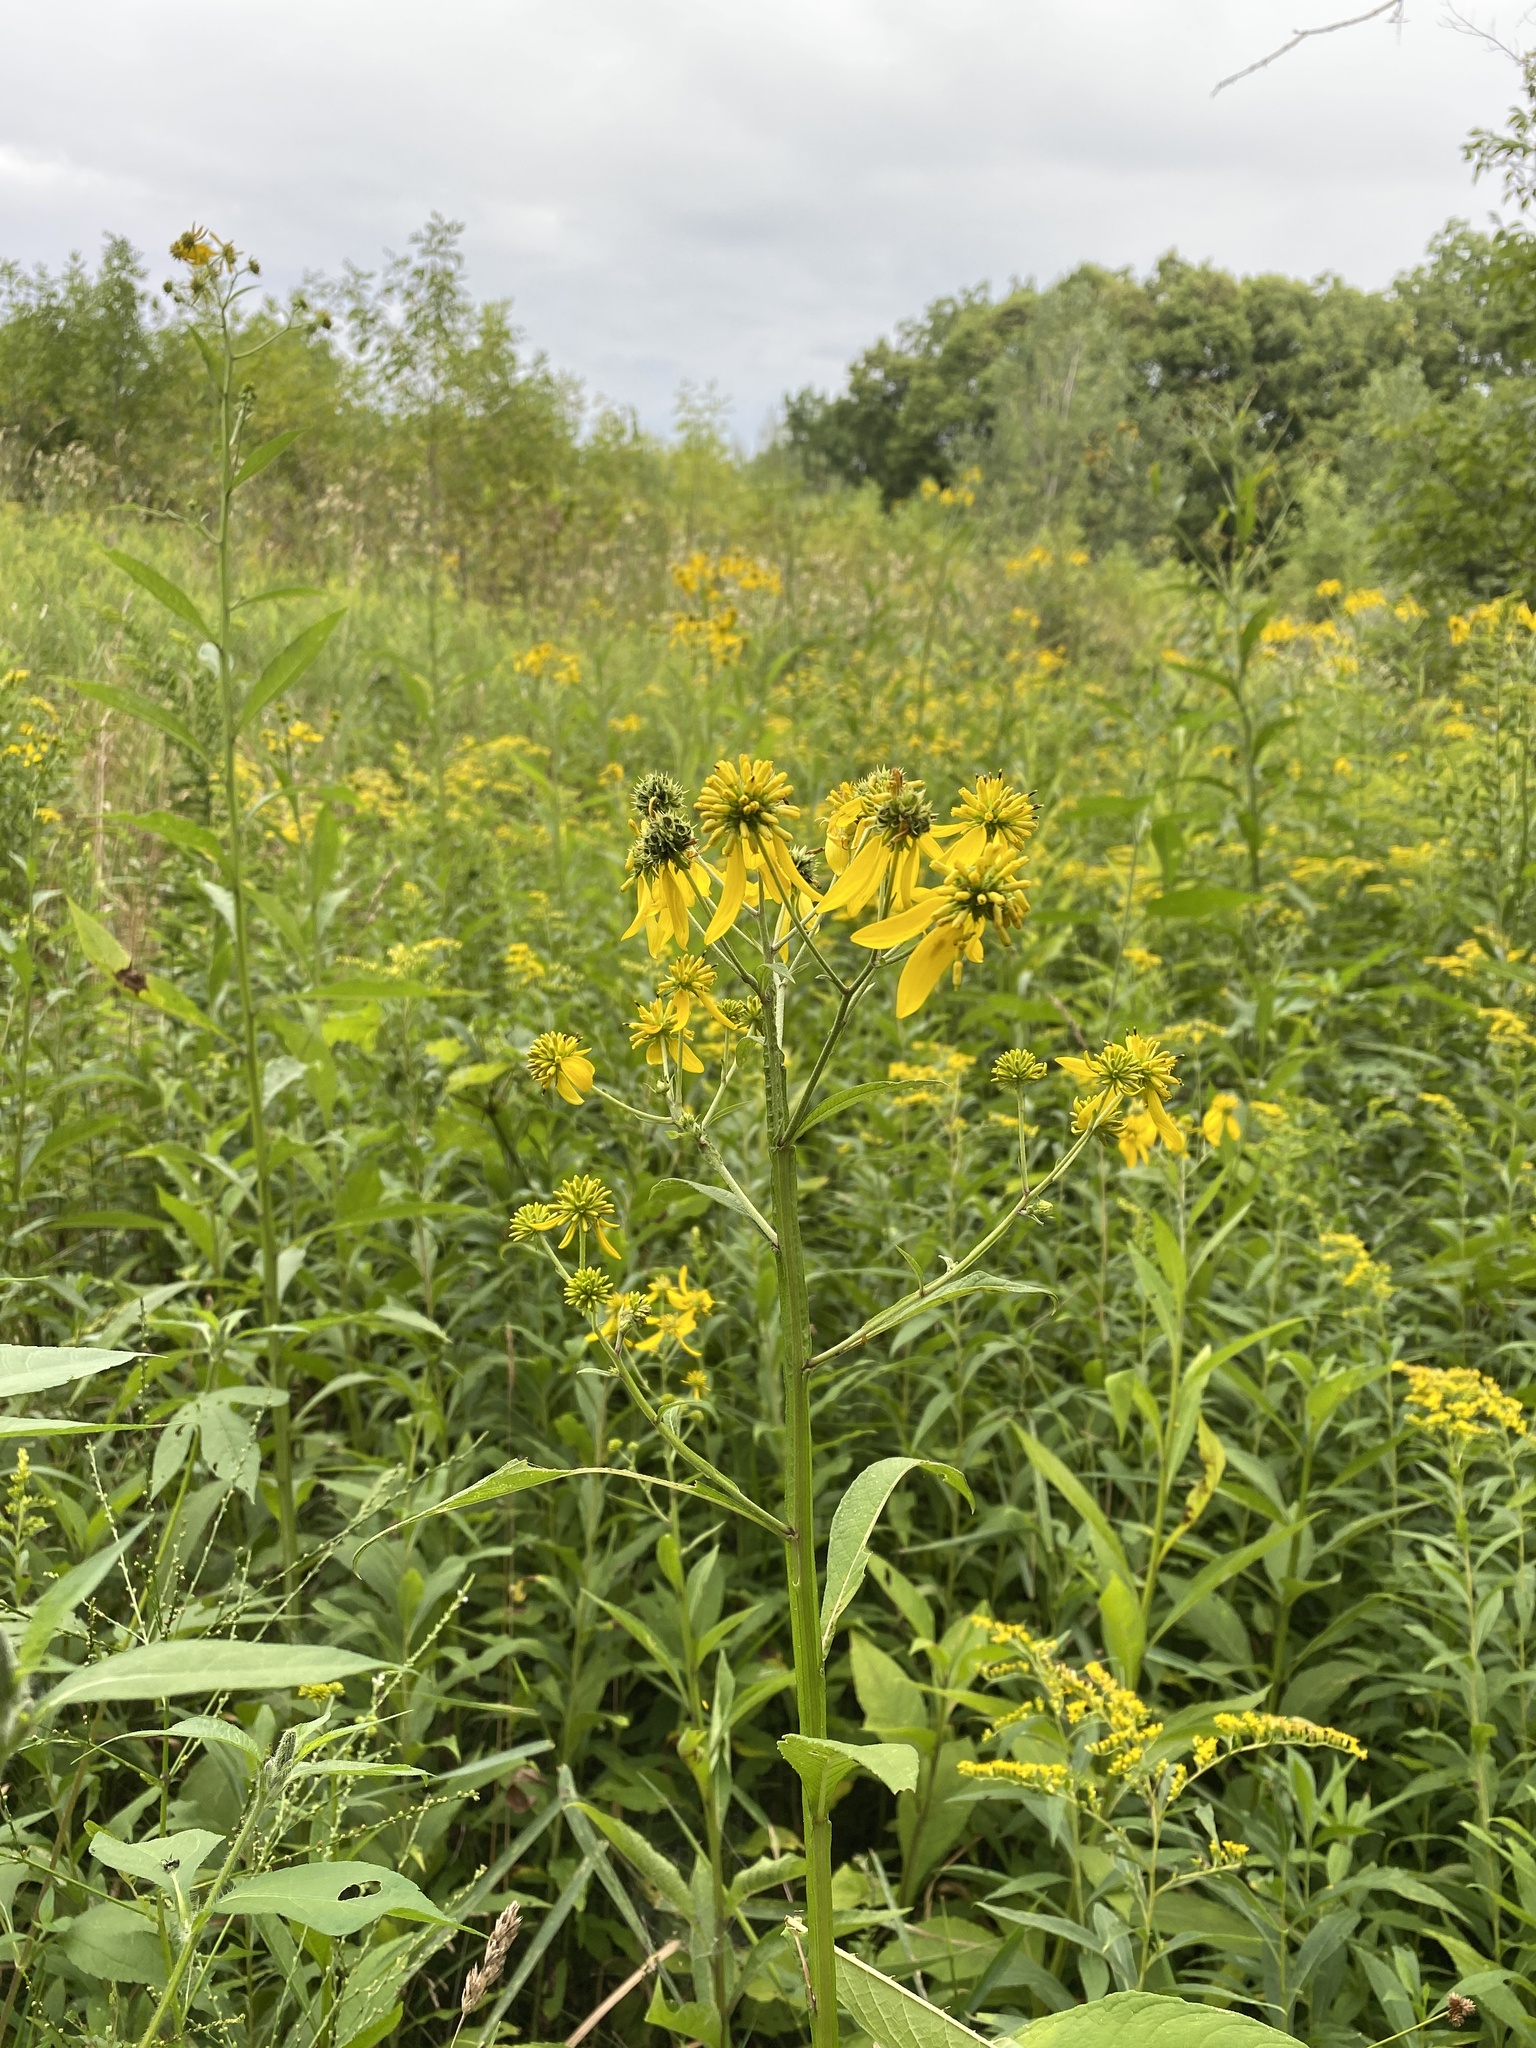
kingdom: Plantae
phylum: Tracheophyta
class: Magnoliopsida
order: Asterales
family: Asteraceae
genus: Verbesina
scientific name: Verbesina alternifolia
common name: Wingstem
